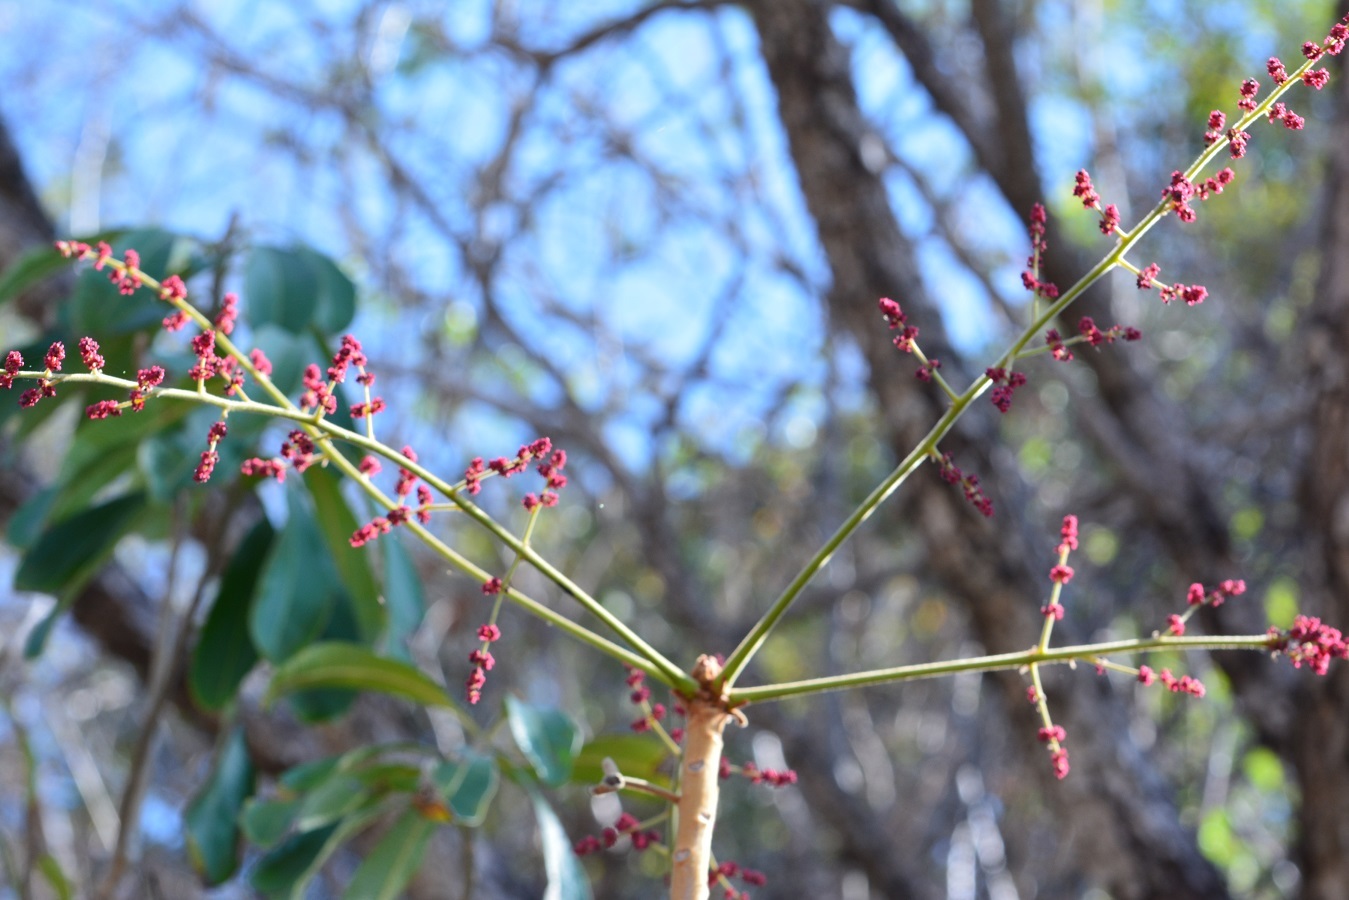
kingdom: Plantae
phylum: Tracheophyta
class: Magnoliopsida
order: Sapindales
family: Anacardiaceae
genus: Comocladia
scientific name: Comocladia guatemalensis
